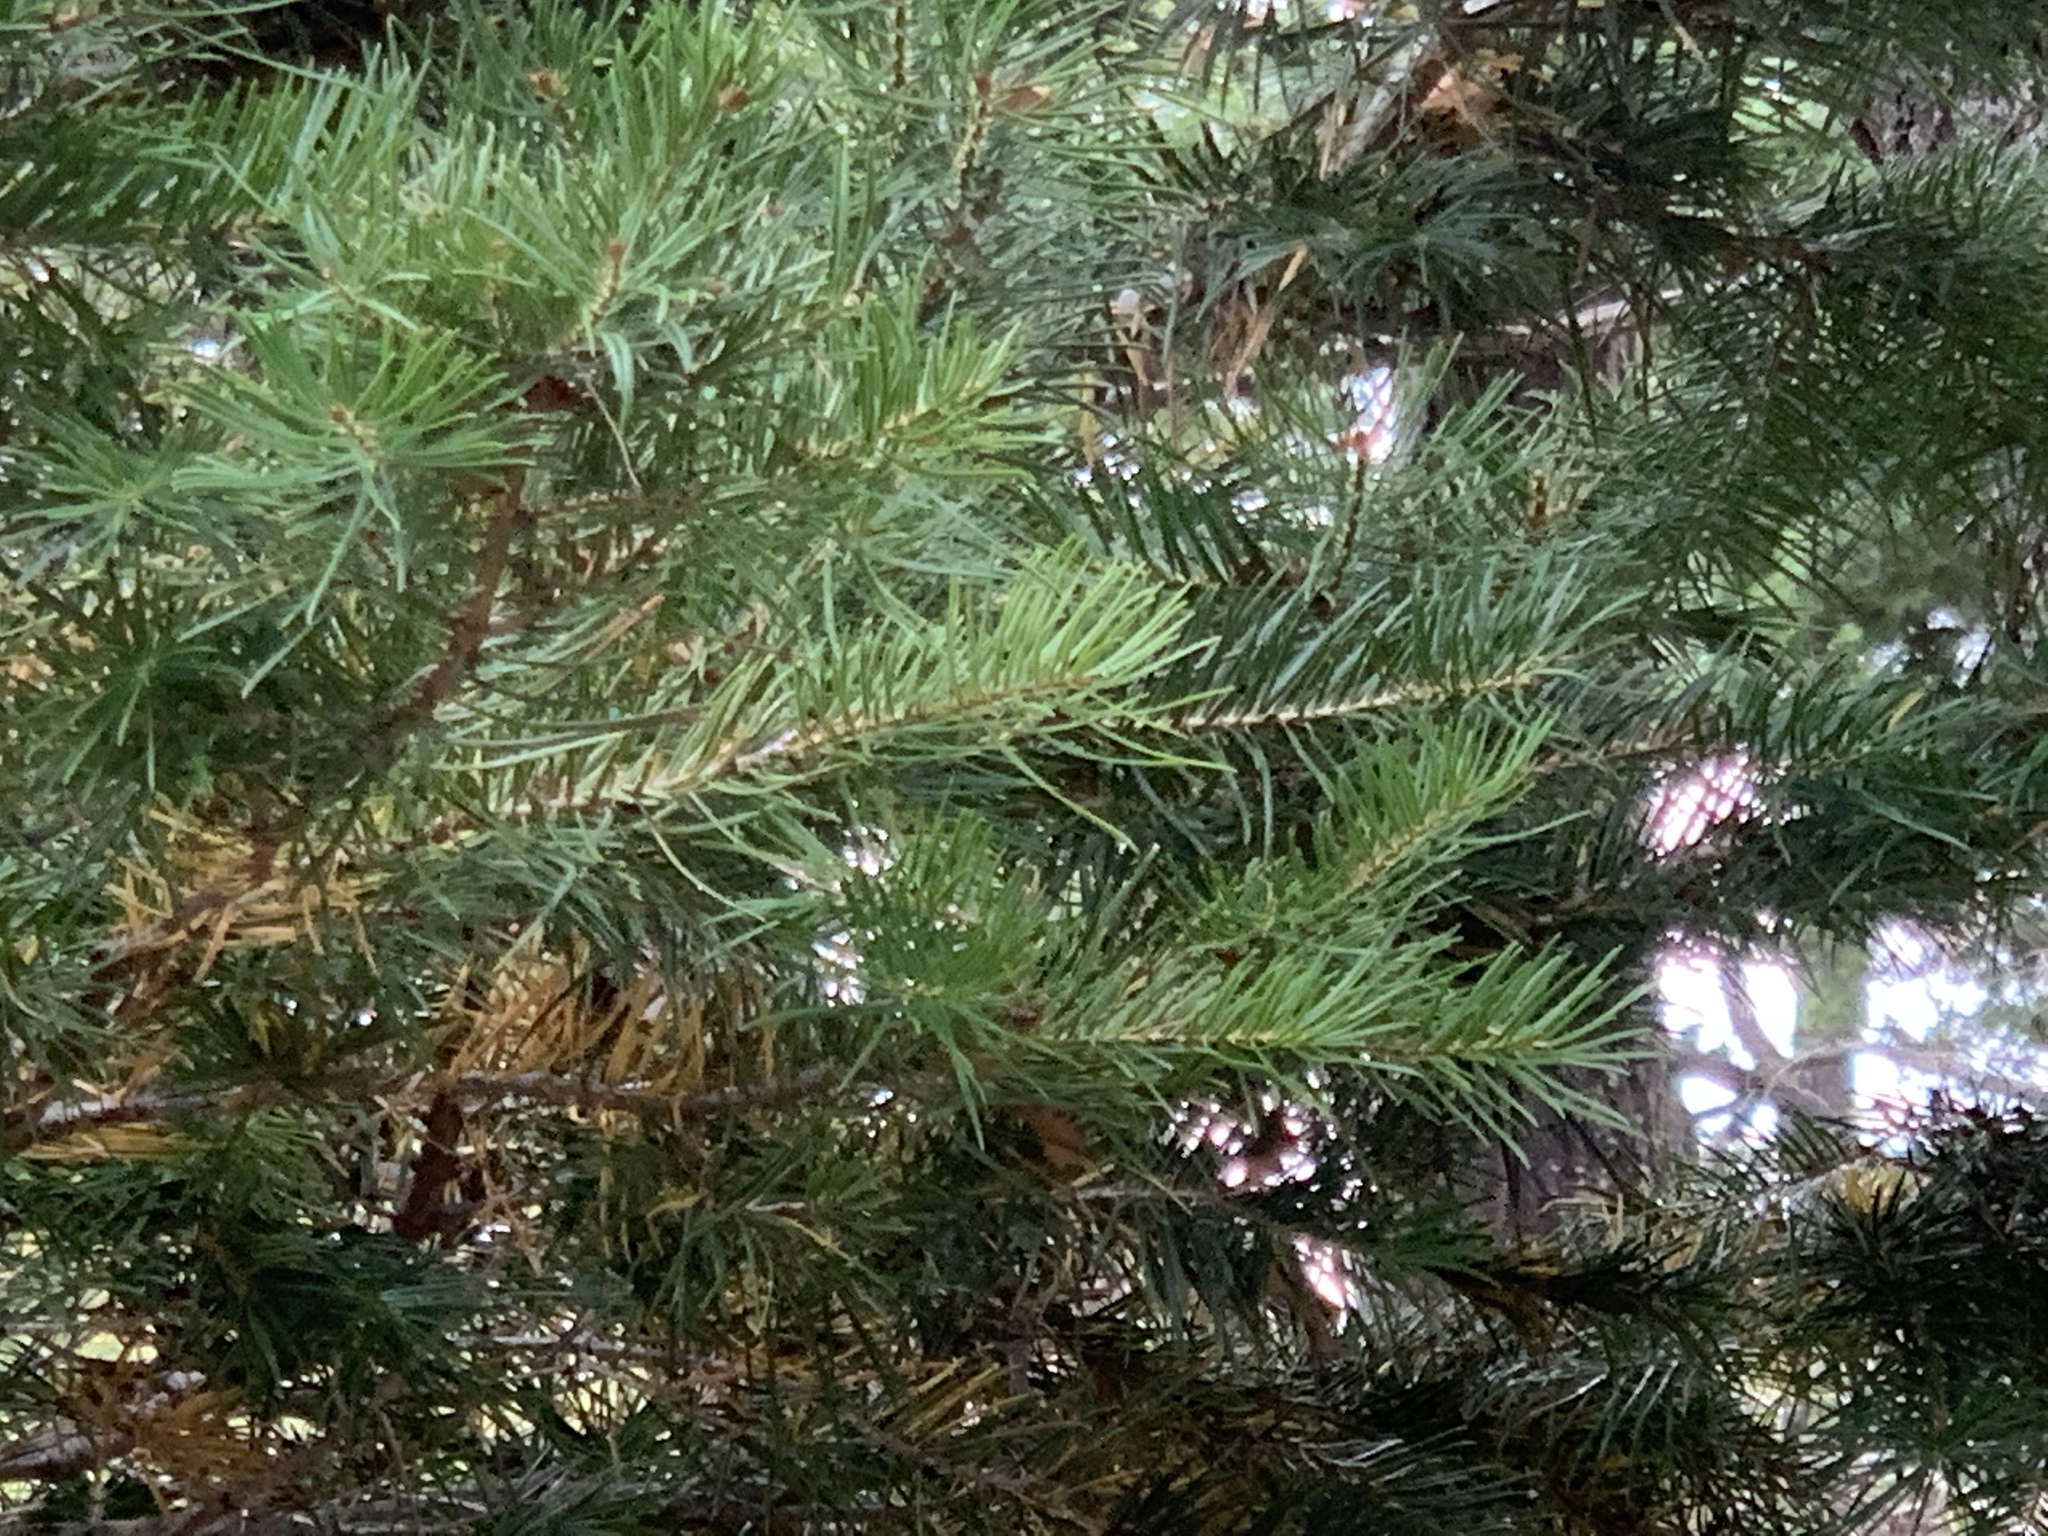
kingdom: Plantae
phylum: Tracheophyta
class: Pinopsida
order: Pinales
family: Pinaceae
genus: Pseudotsuga
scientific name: Pseudotsuga menziesii
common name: Douglas fir
